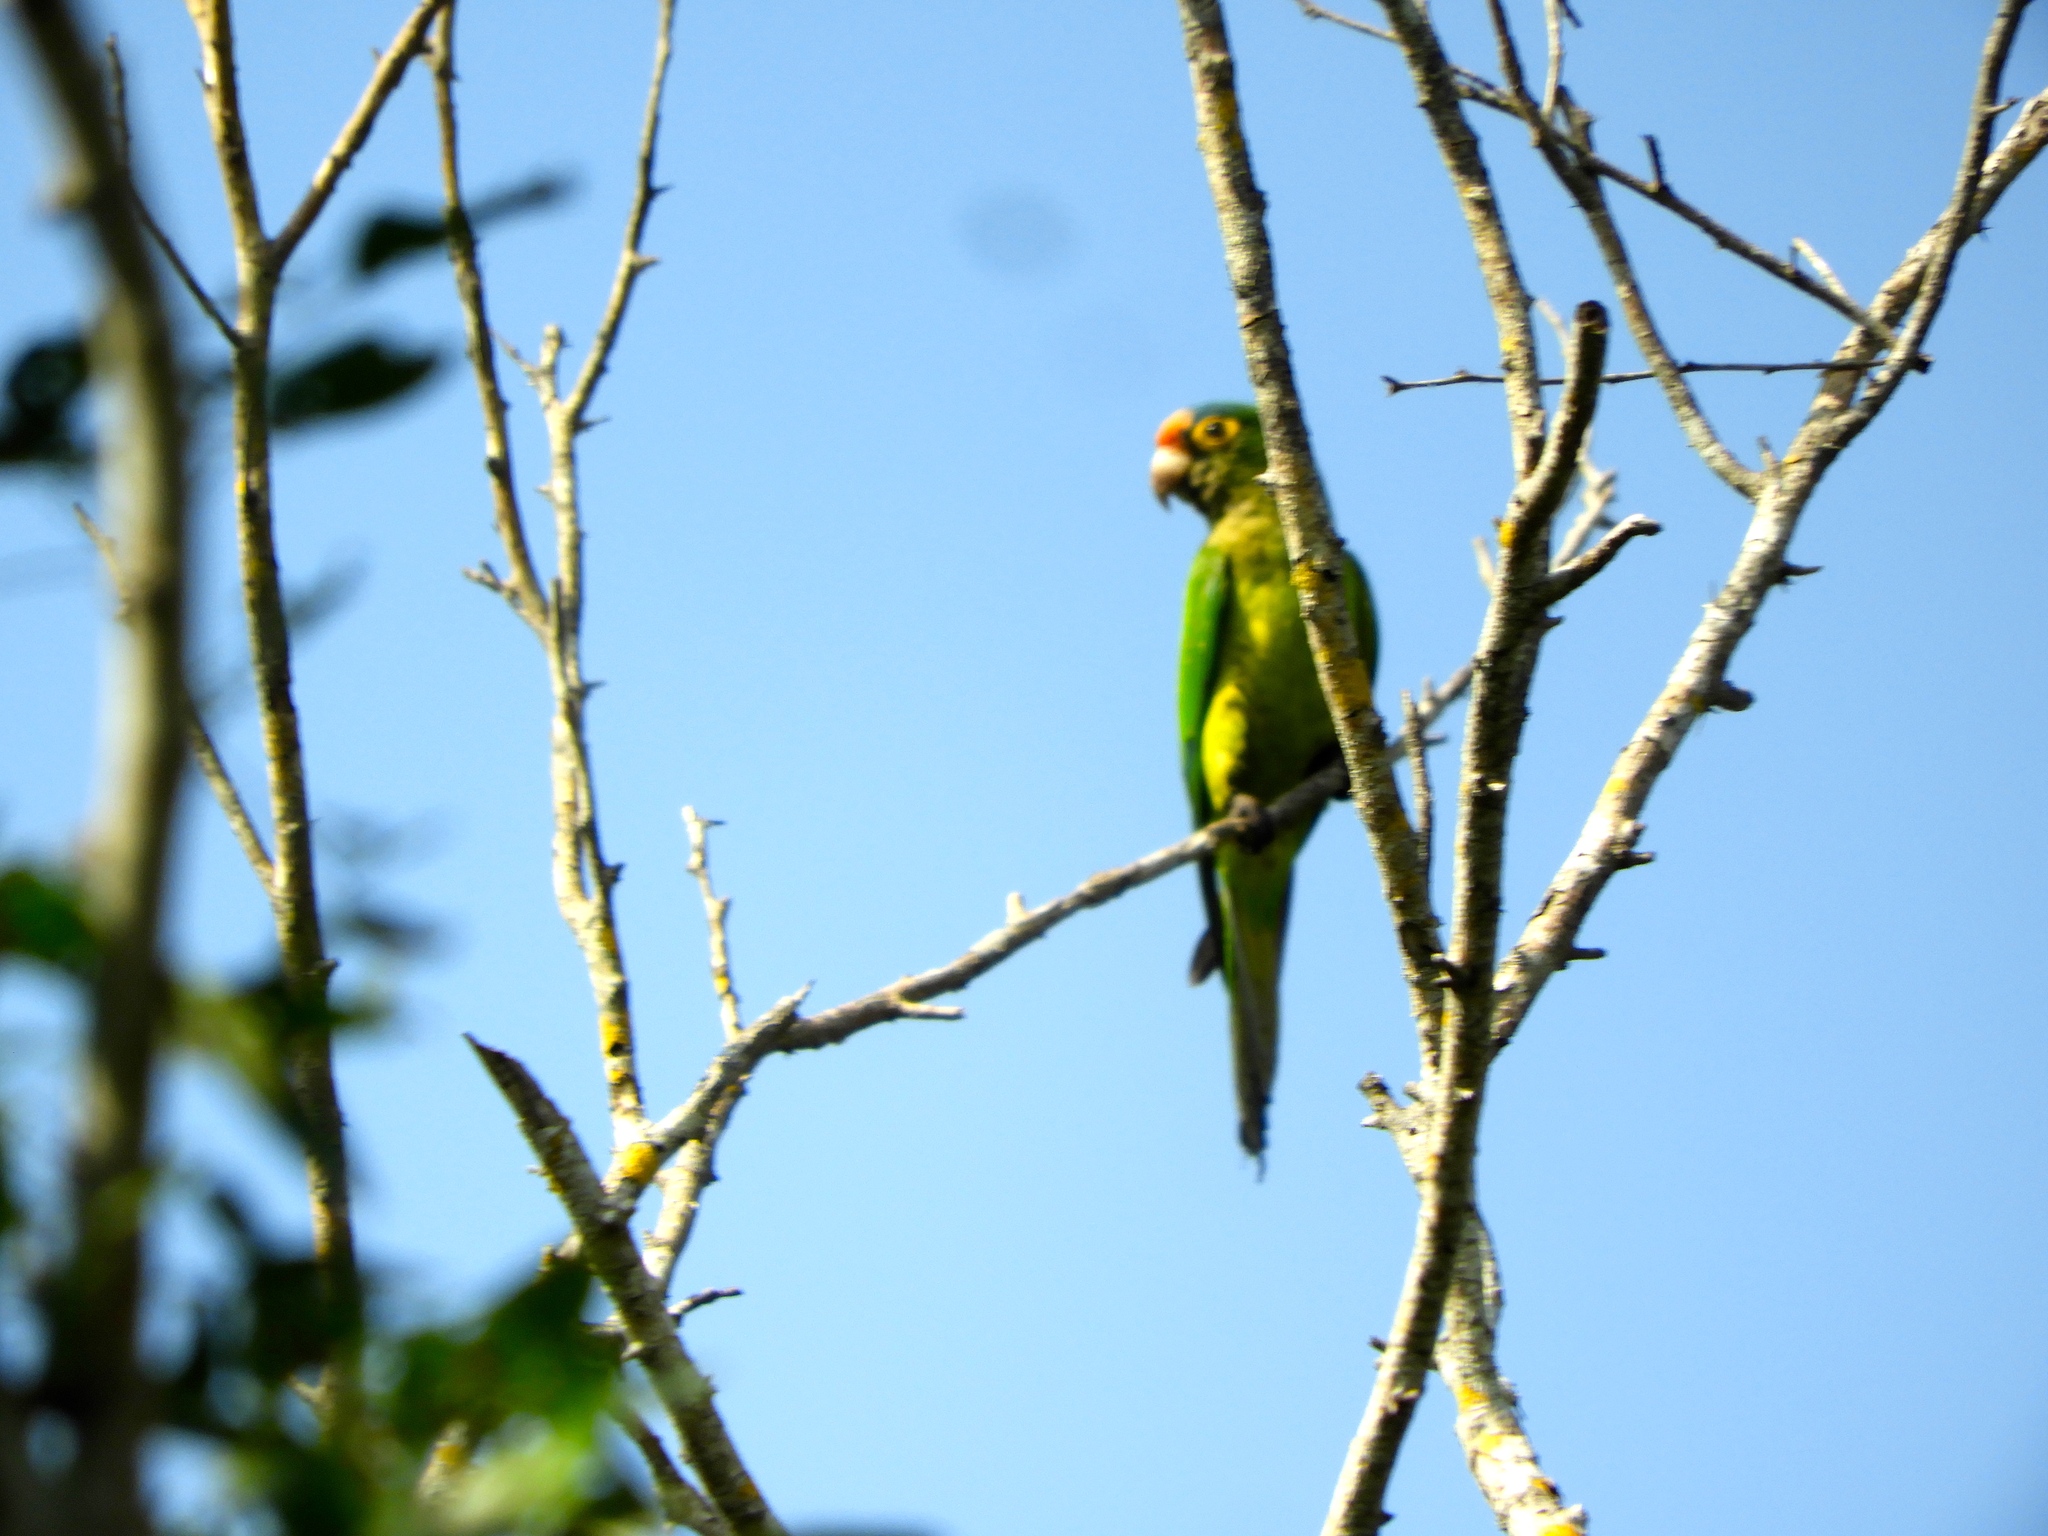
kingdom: Animalia
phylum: Chordata
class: Aves
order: Psittaciformes
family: Psittacidae
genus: Aratinga
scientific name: Aratinga canicularis
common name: Orange-fronted parakeet
